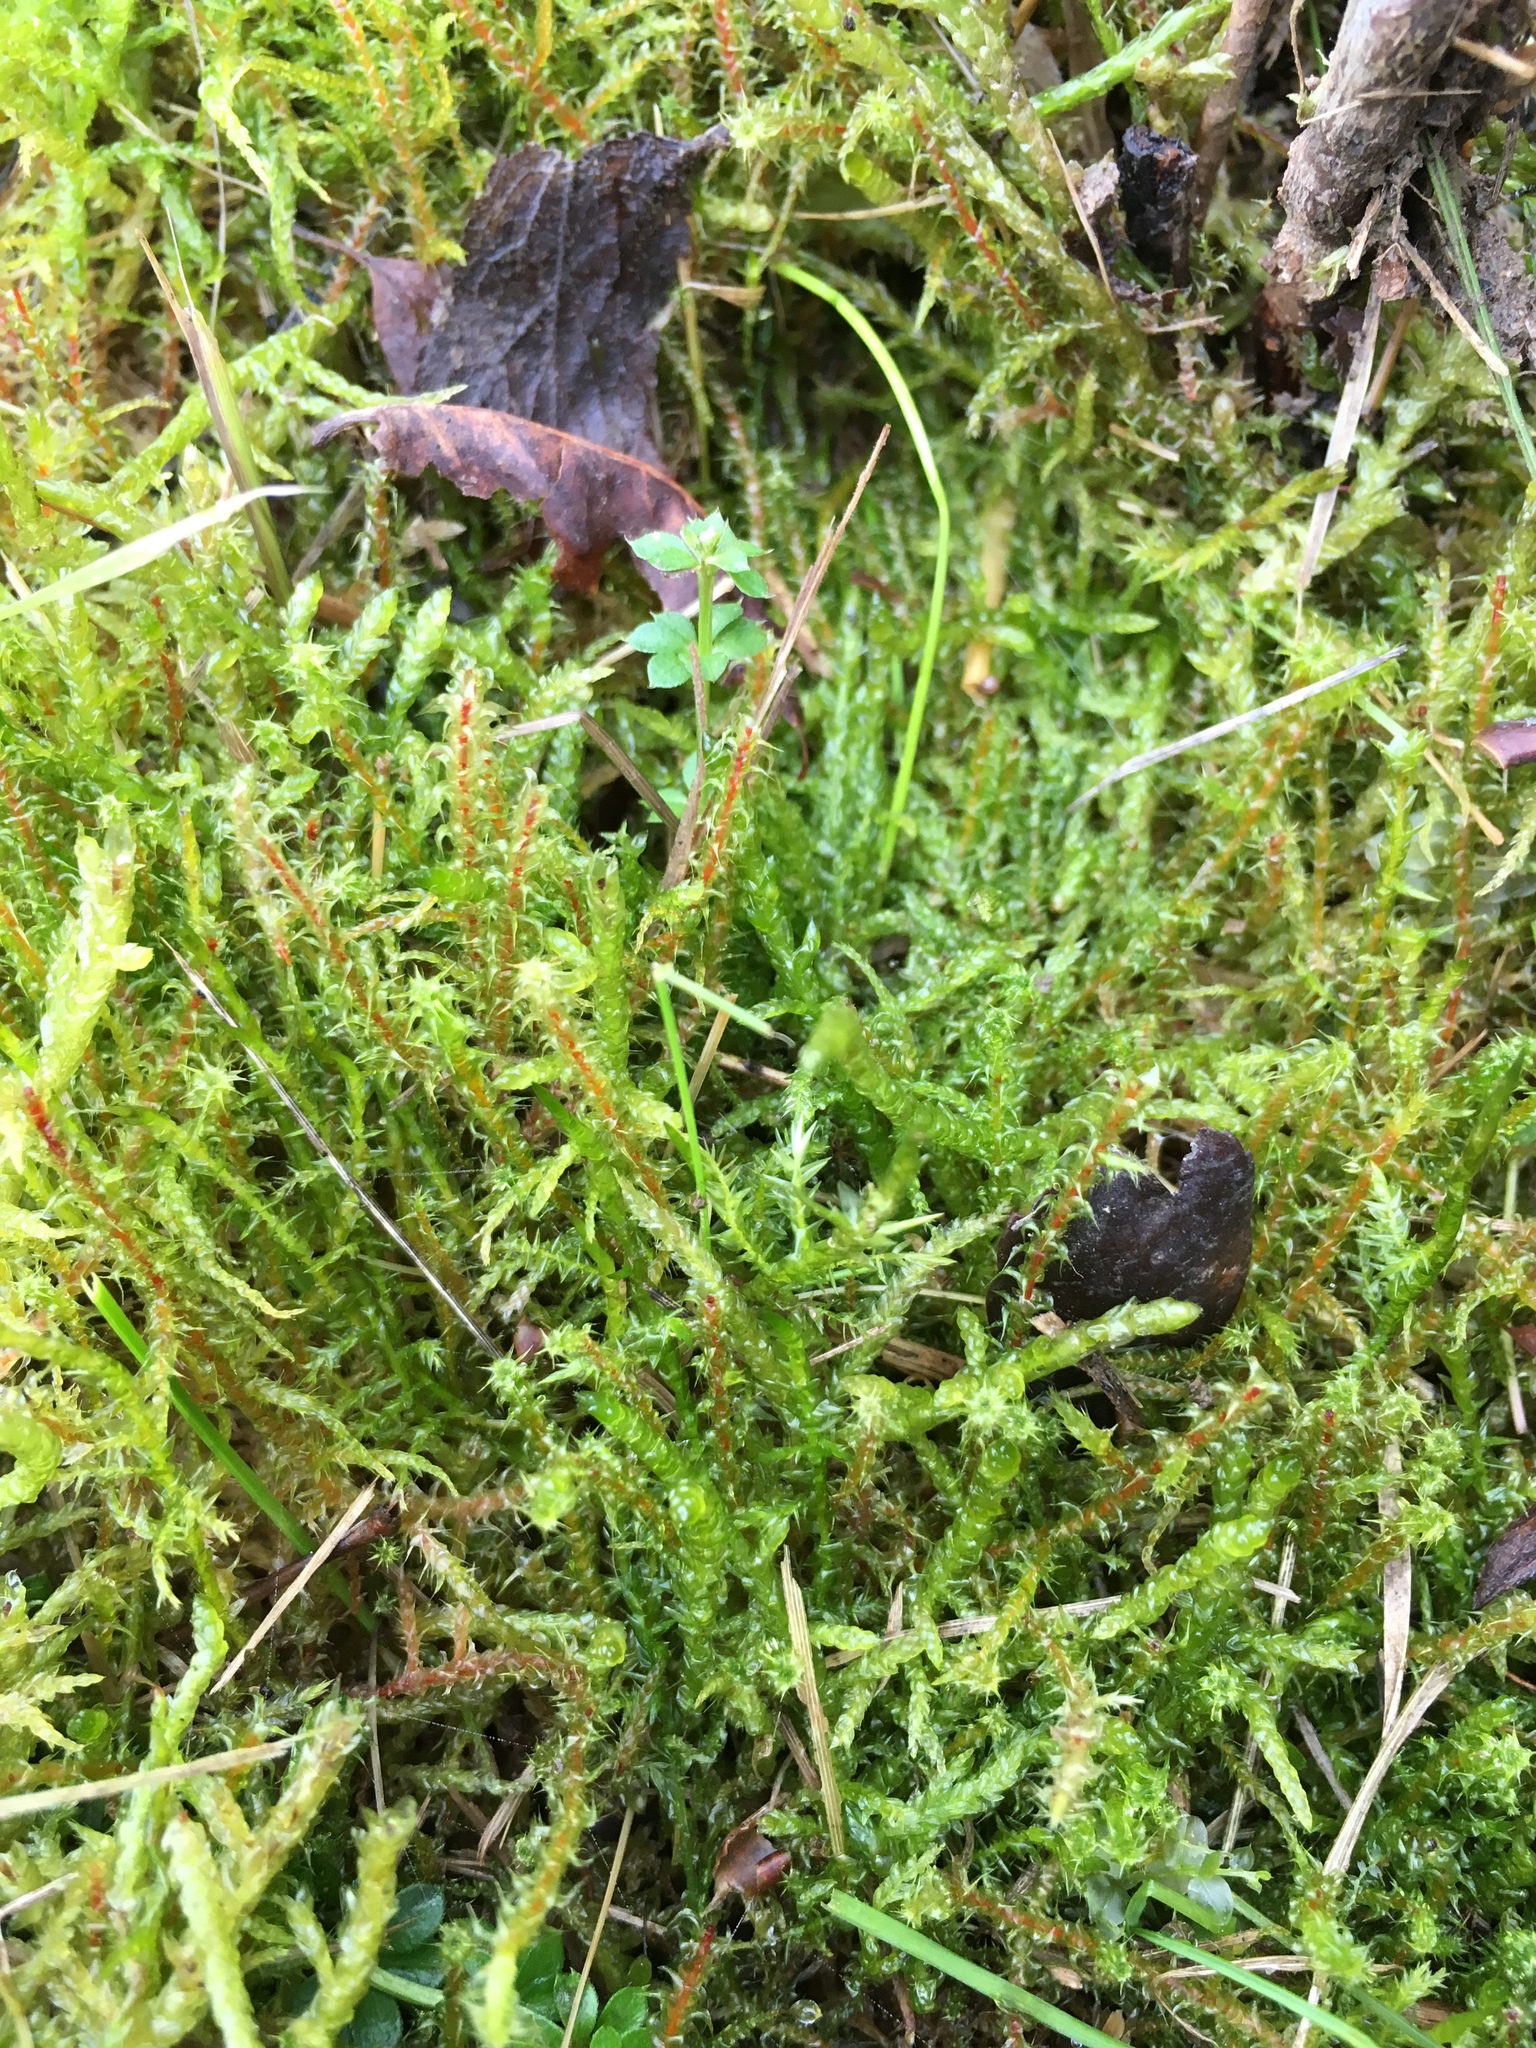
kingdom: Plantae
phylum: Bryophyta
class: Bryopsida
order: Hypnales
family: Hylocomiaceae
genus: Rhytidiadelphus
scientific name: Rhytidiadelphus squarrosus
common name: Springy turf-moss
